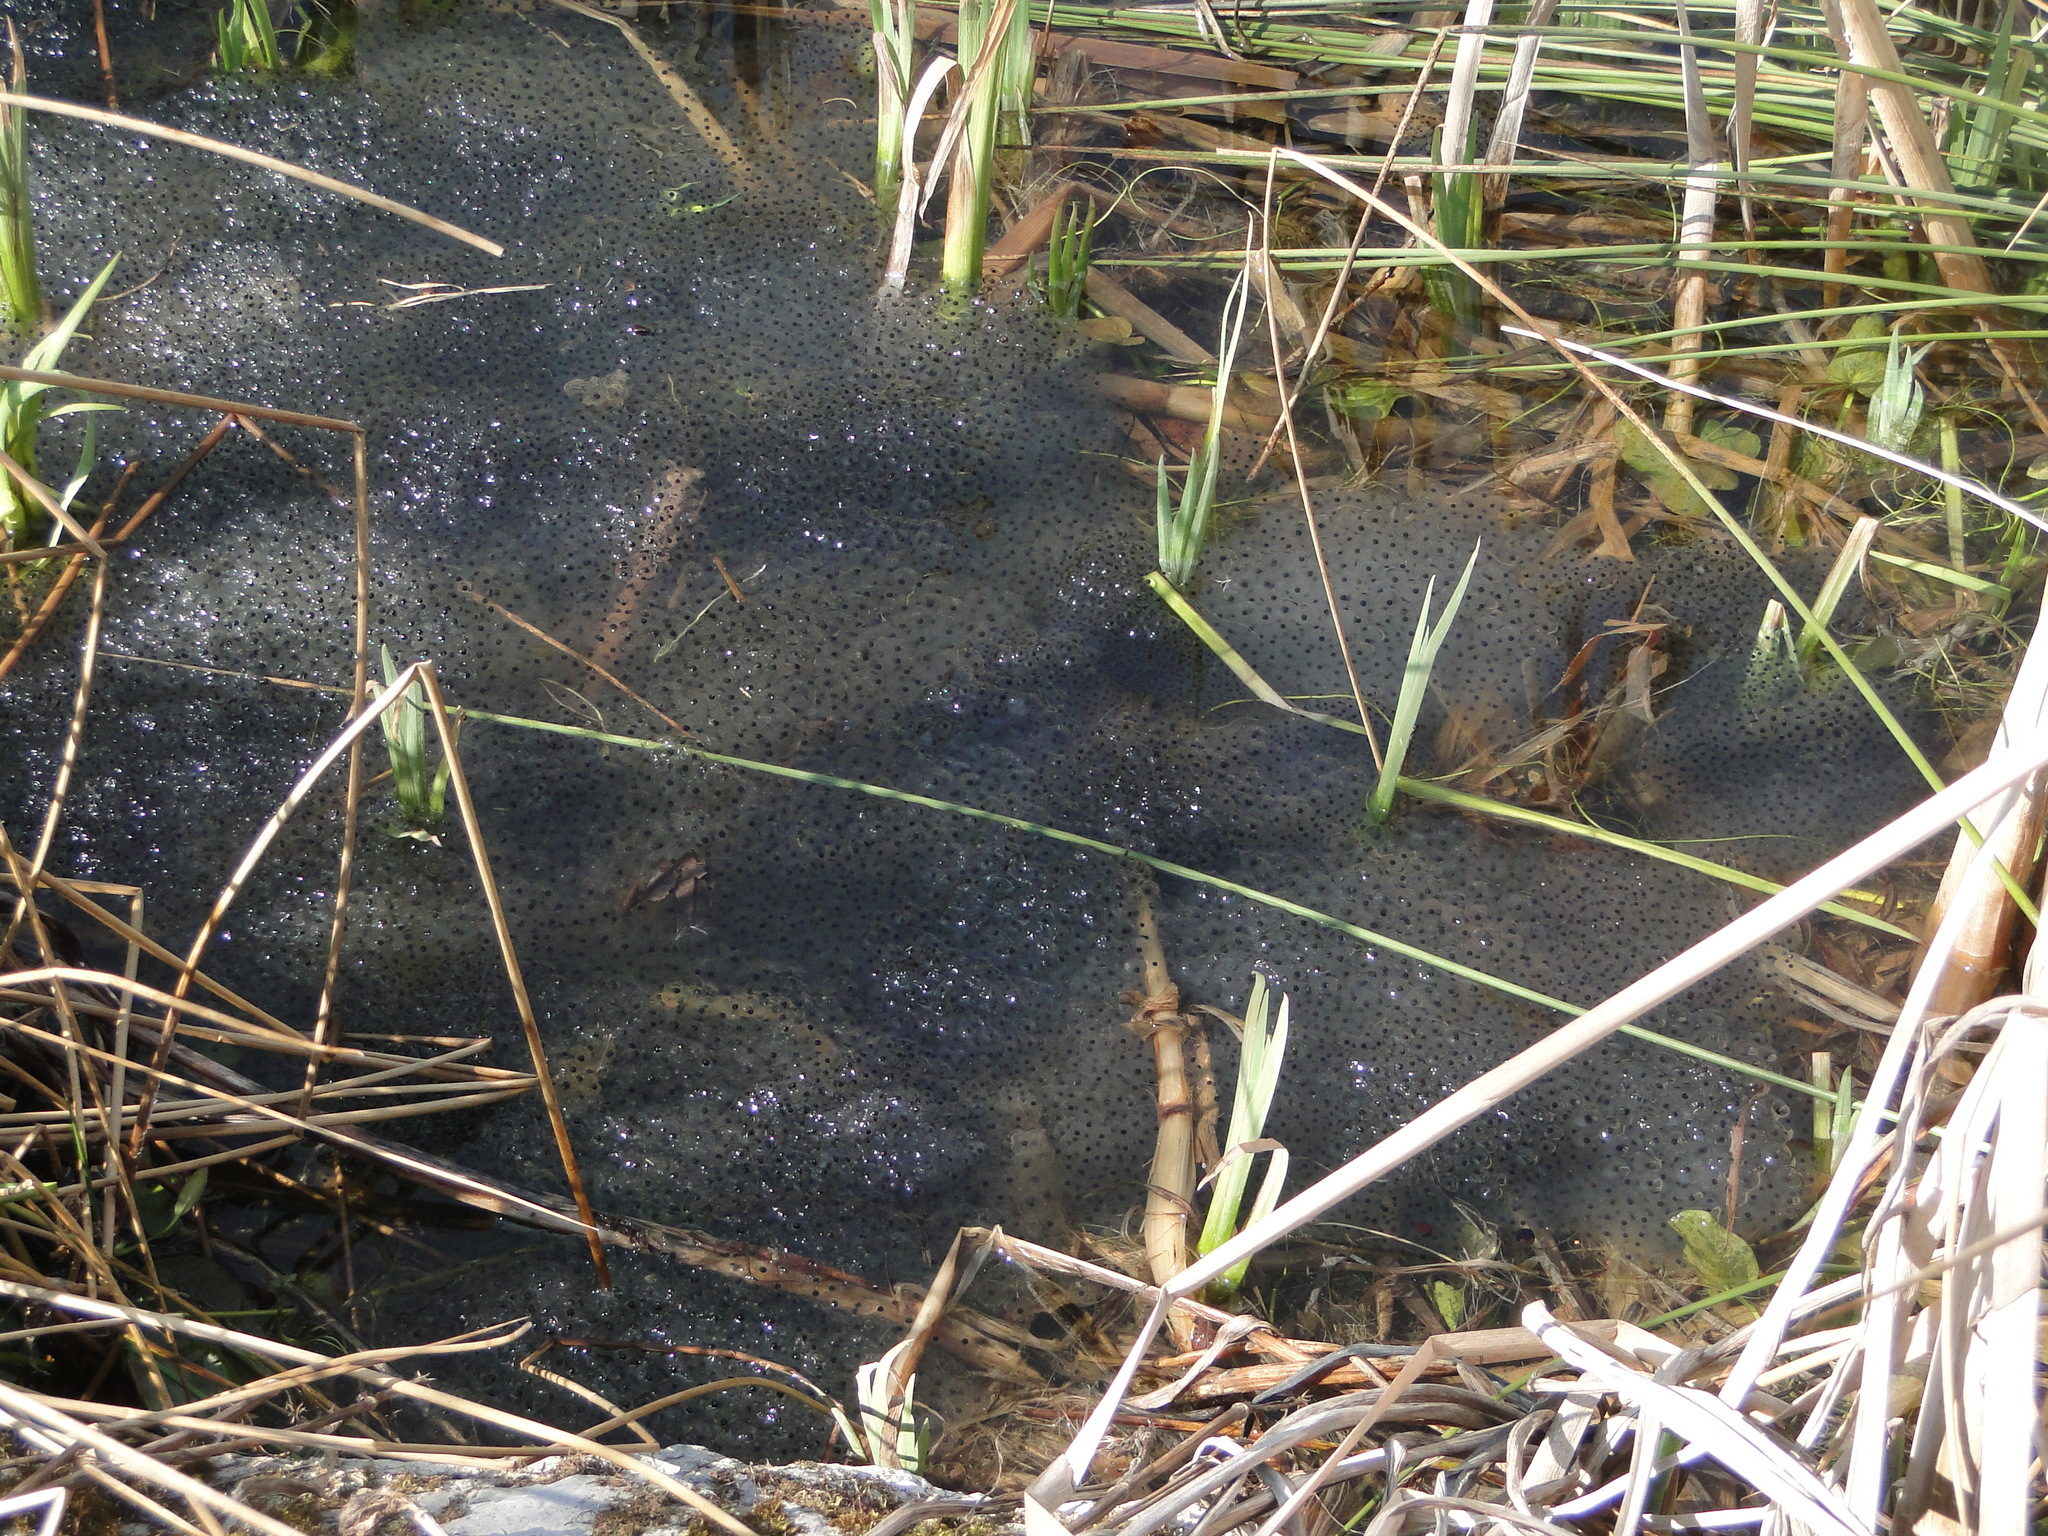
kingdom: Animalia
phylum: Chordata
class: Amphibia
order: Anura
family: Ranidae
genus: Rana
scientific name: Rana temporaria
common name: Common frog
